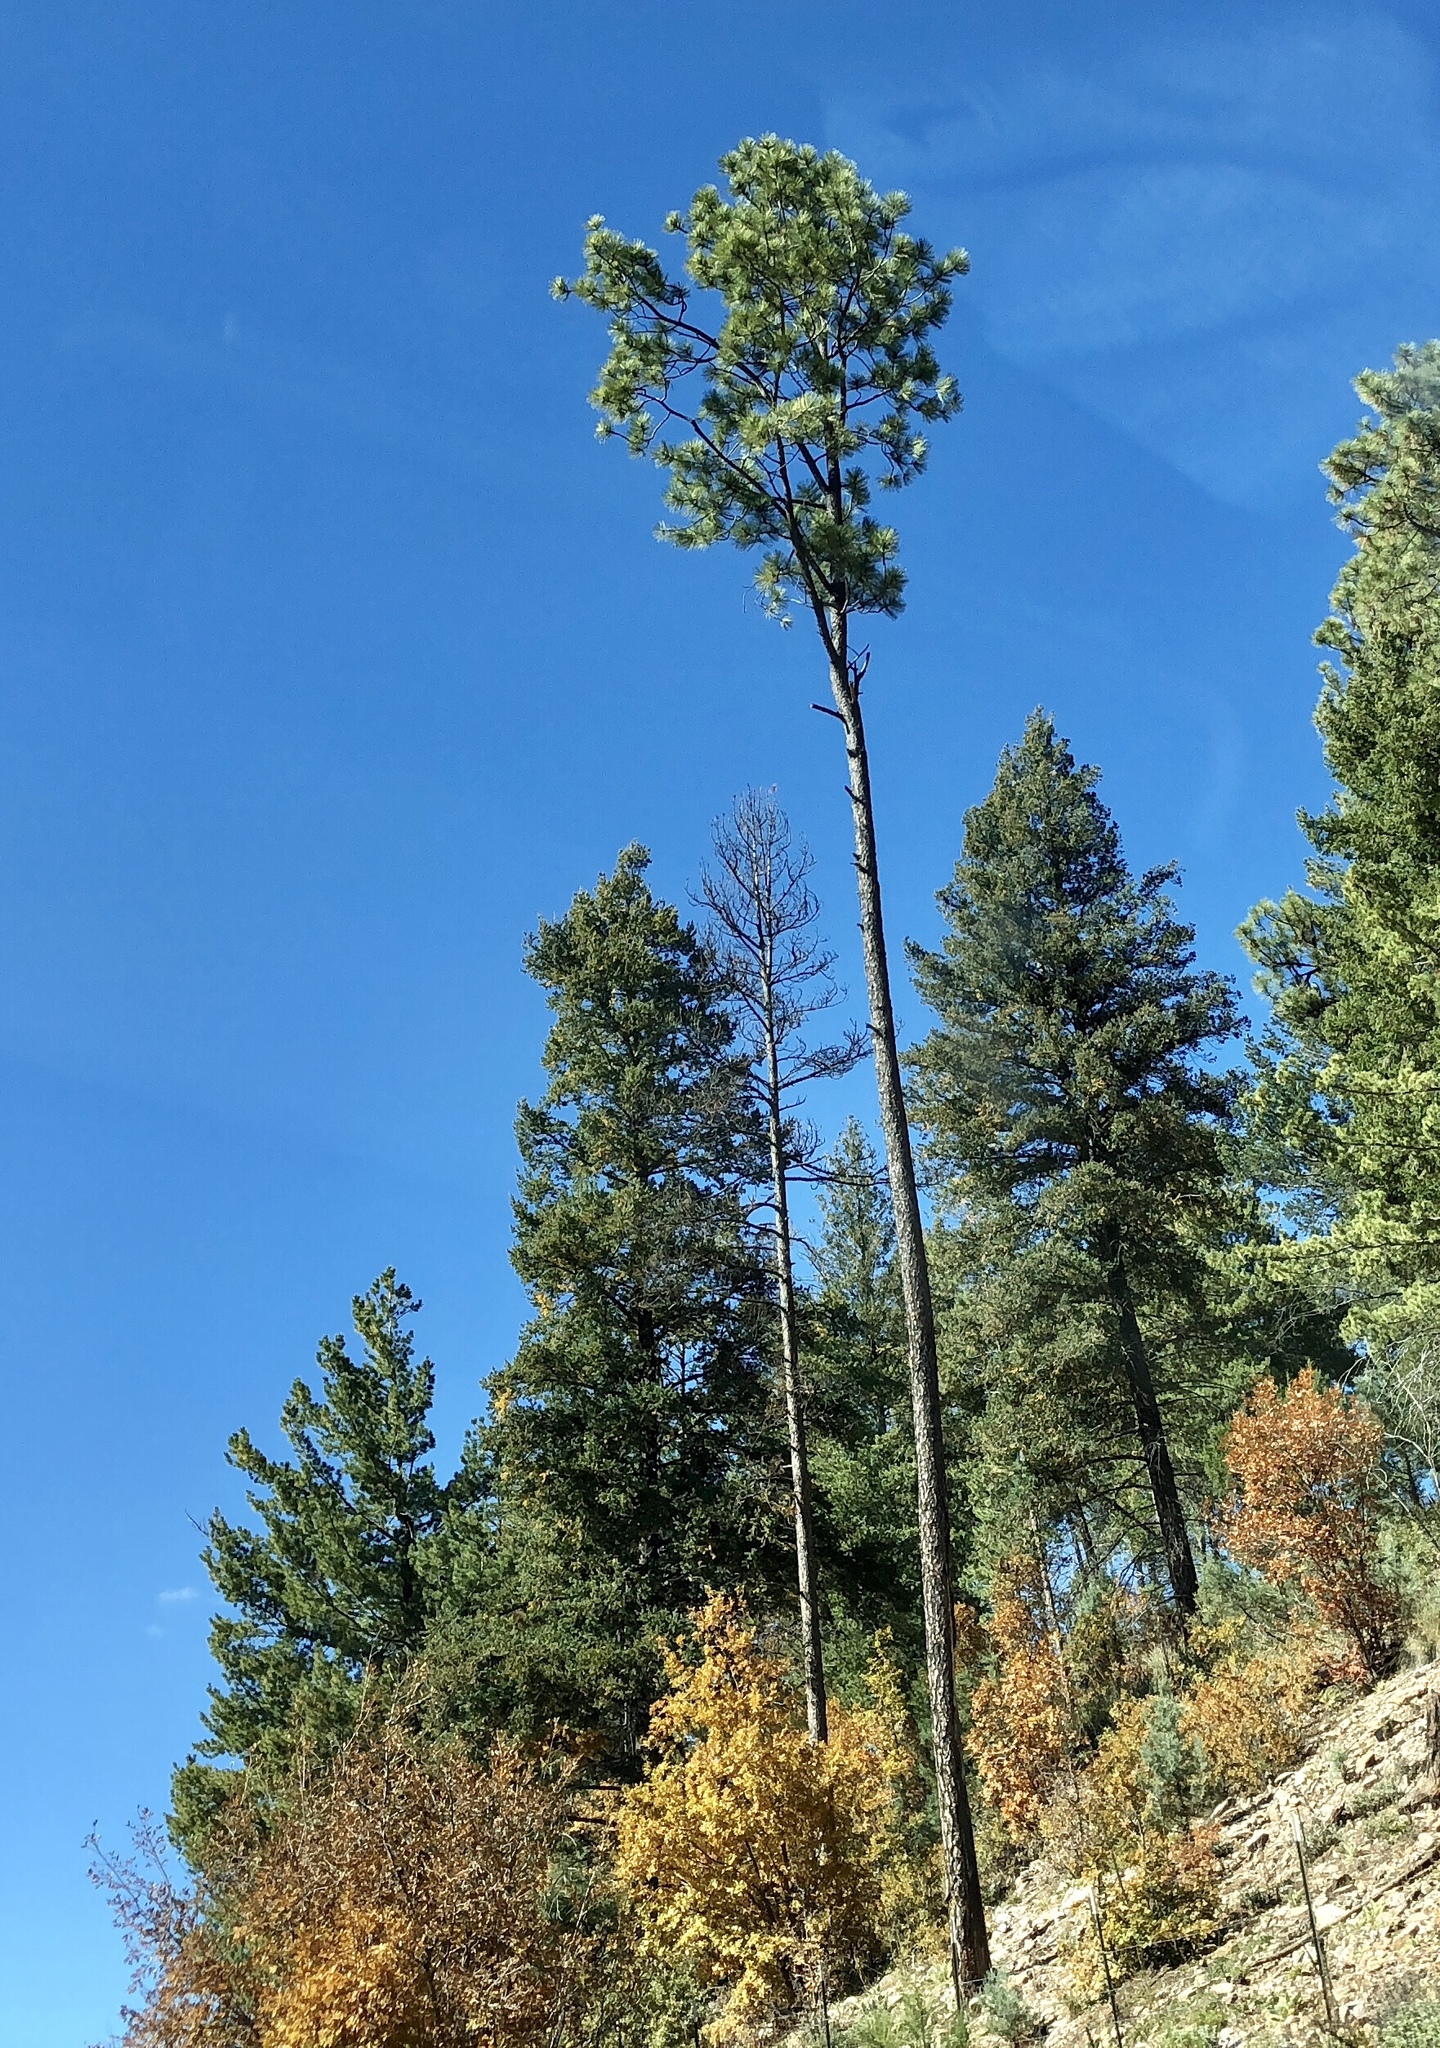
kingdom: Plantae
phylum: Tracheophyta
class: Pinopsida
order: Pinales
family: Pinaceae
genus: Pinus
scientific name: Pinus ponderosa
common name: Western yellow-pine
